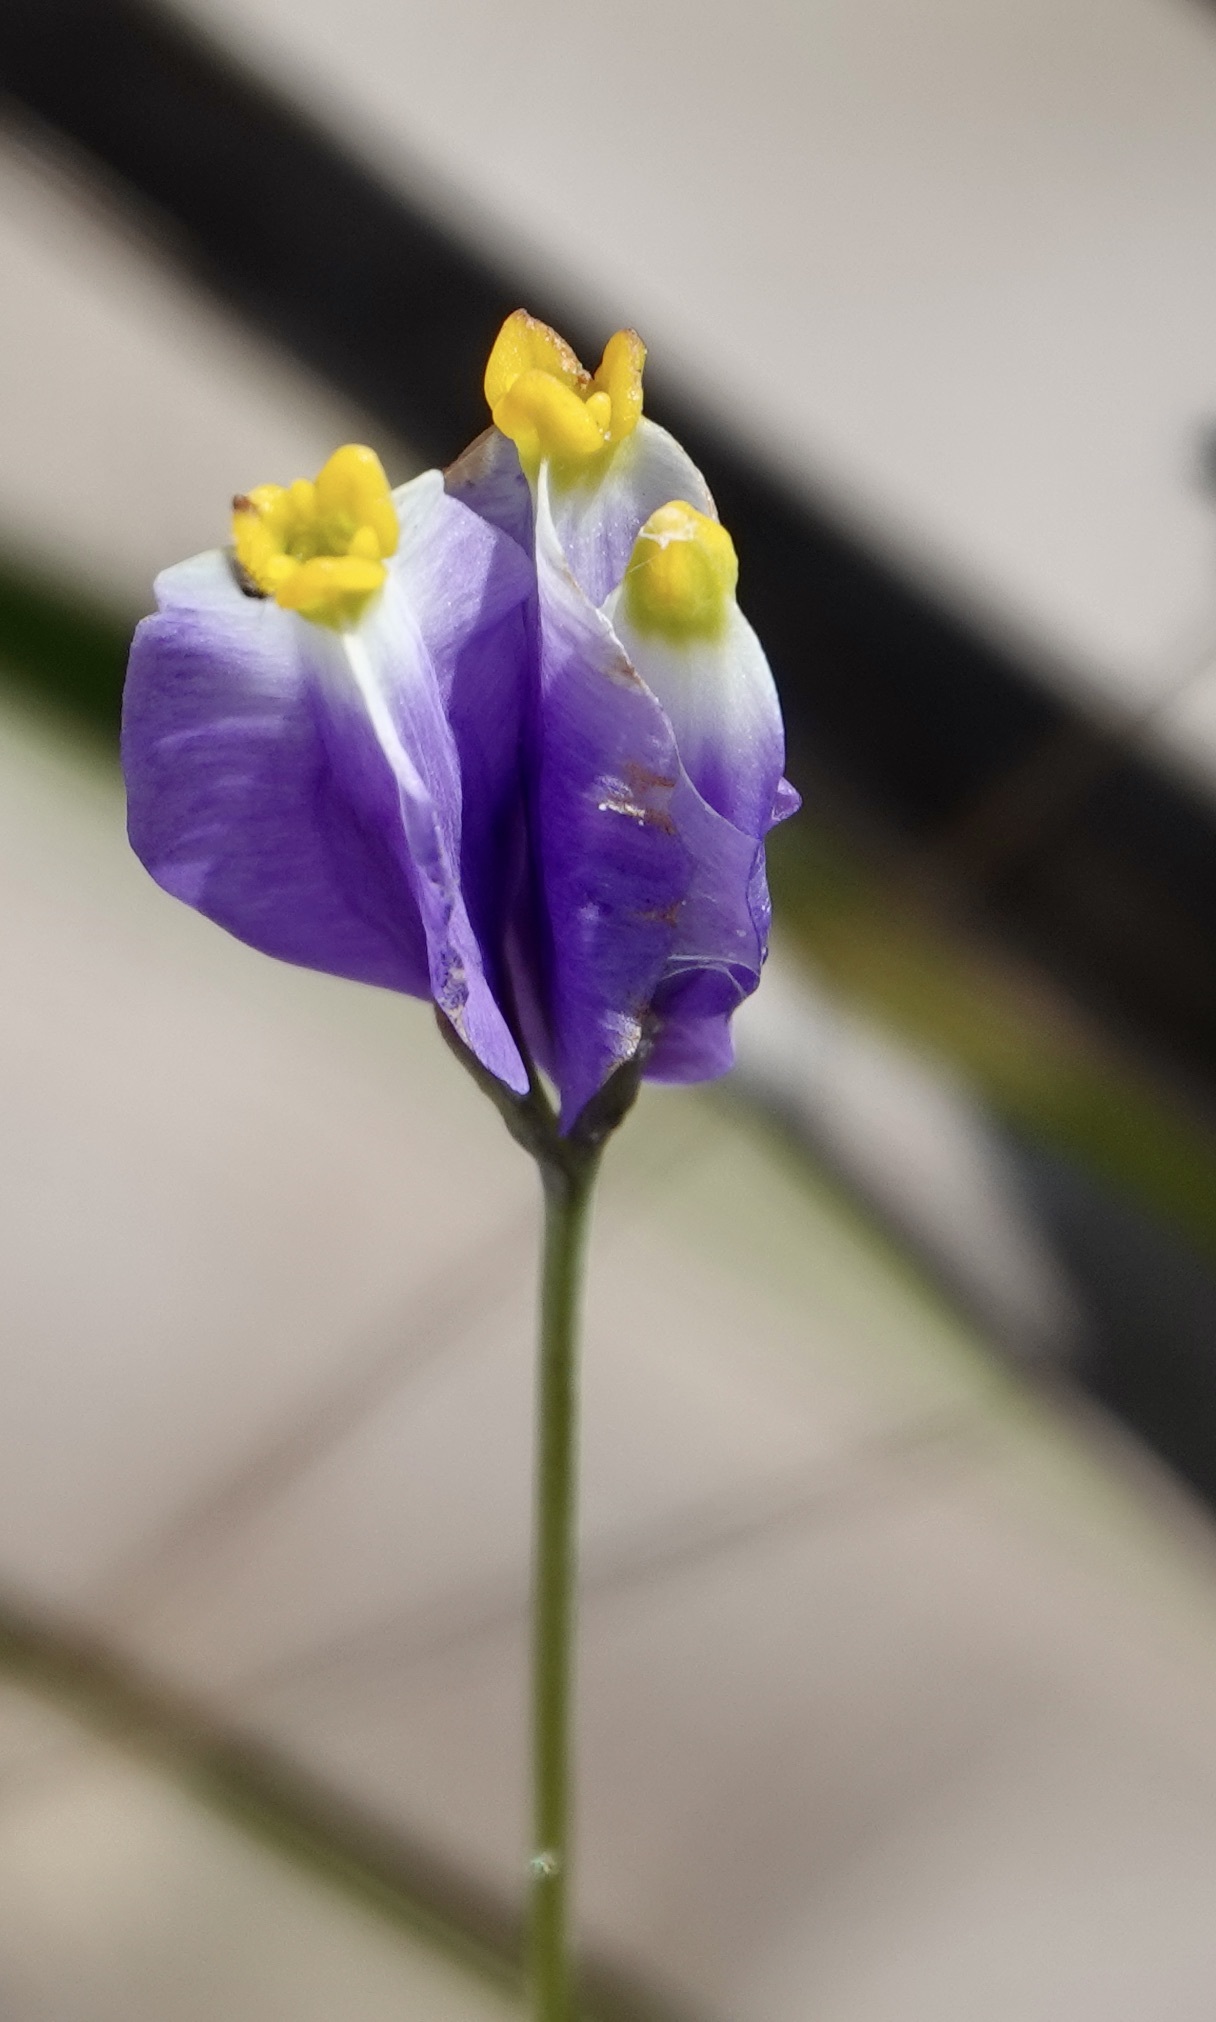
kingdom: Plantae
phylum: Tracheophyta
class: Liliopsida
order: Dioscoreales
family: Burmanniaceae
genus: Burmannia
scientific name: Burmannia bicolor
